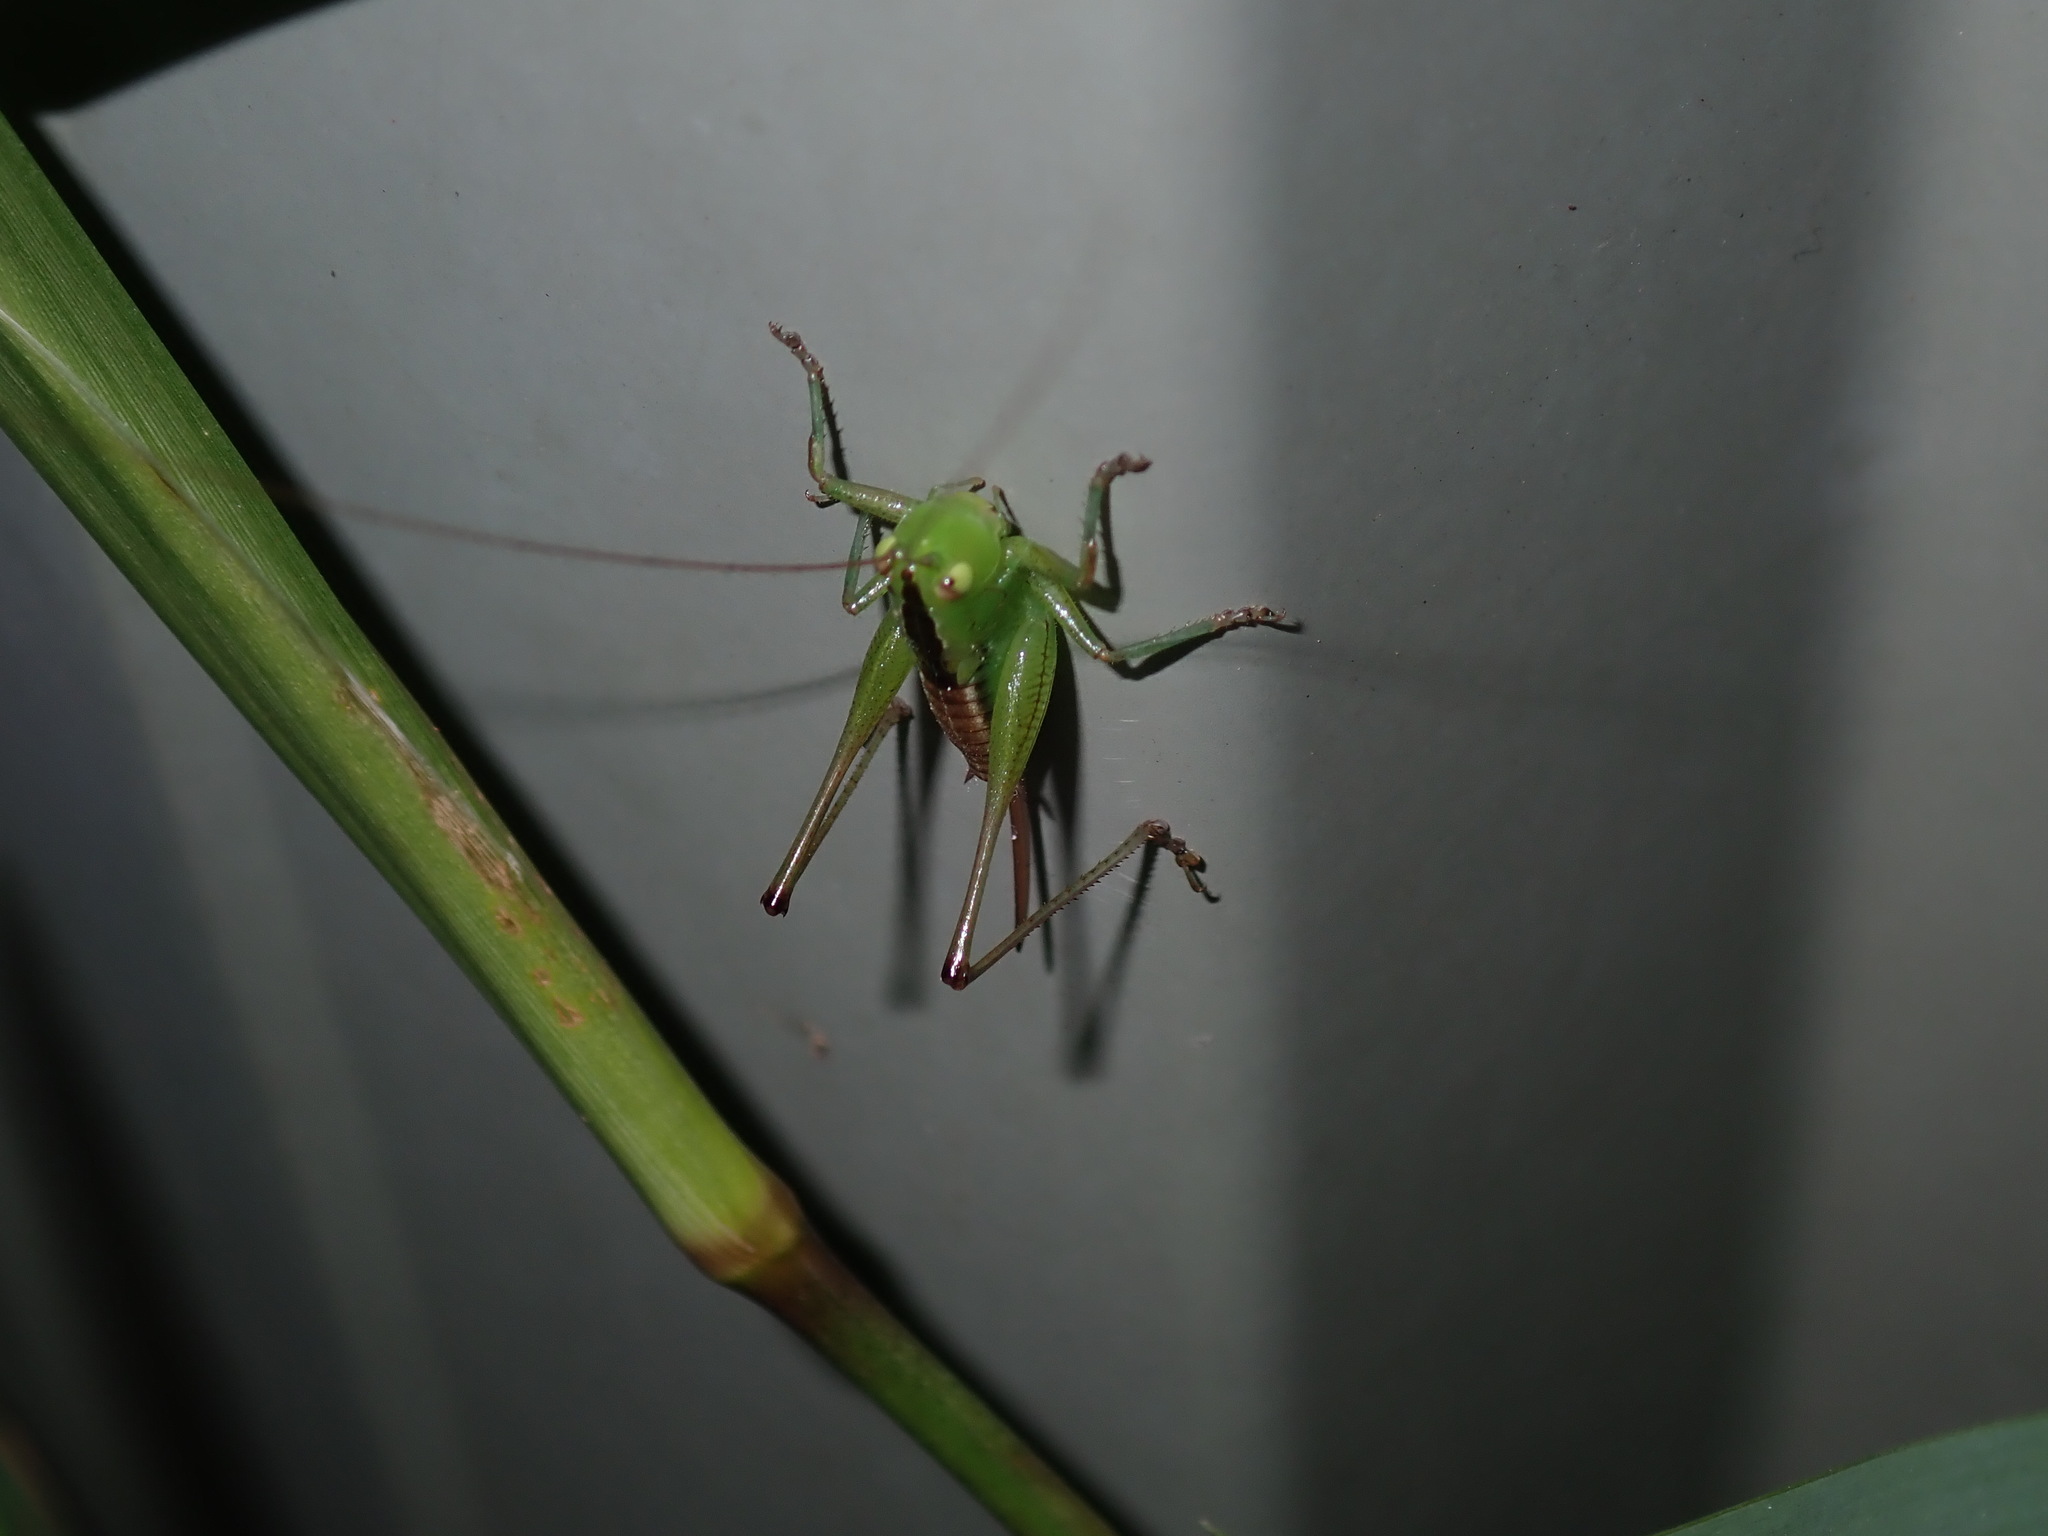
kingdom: Animalia
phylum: Arthropoda
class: Insecta
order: Orthoptera
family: Tettigoniidae
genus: Conocephalus
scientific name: Conocephalus semivittatus
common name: Blackish meadow katydid
